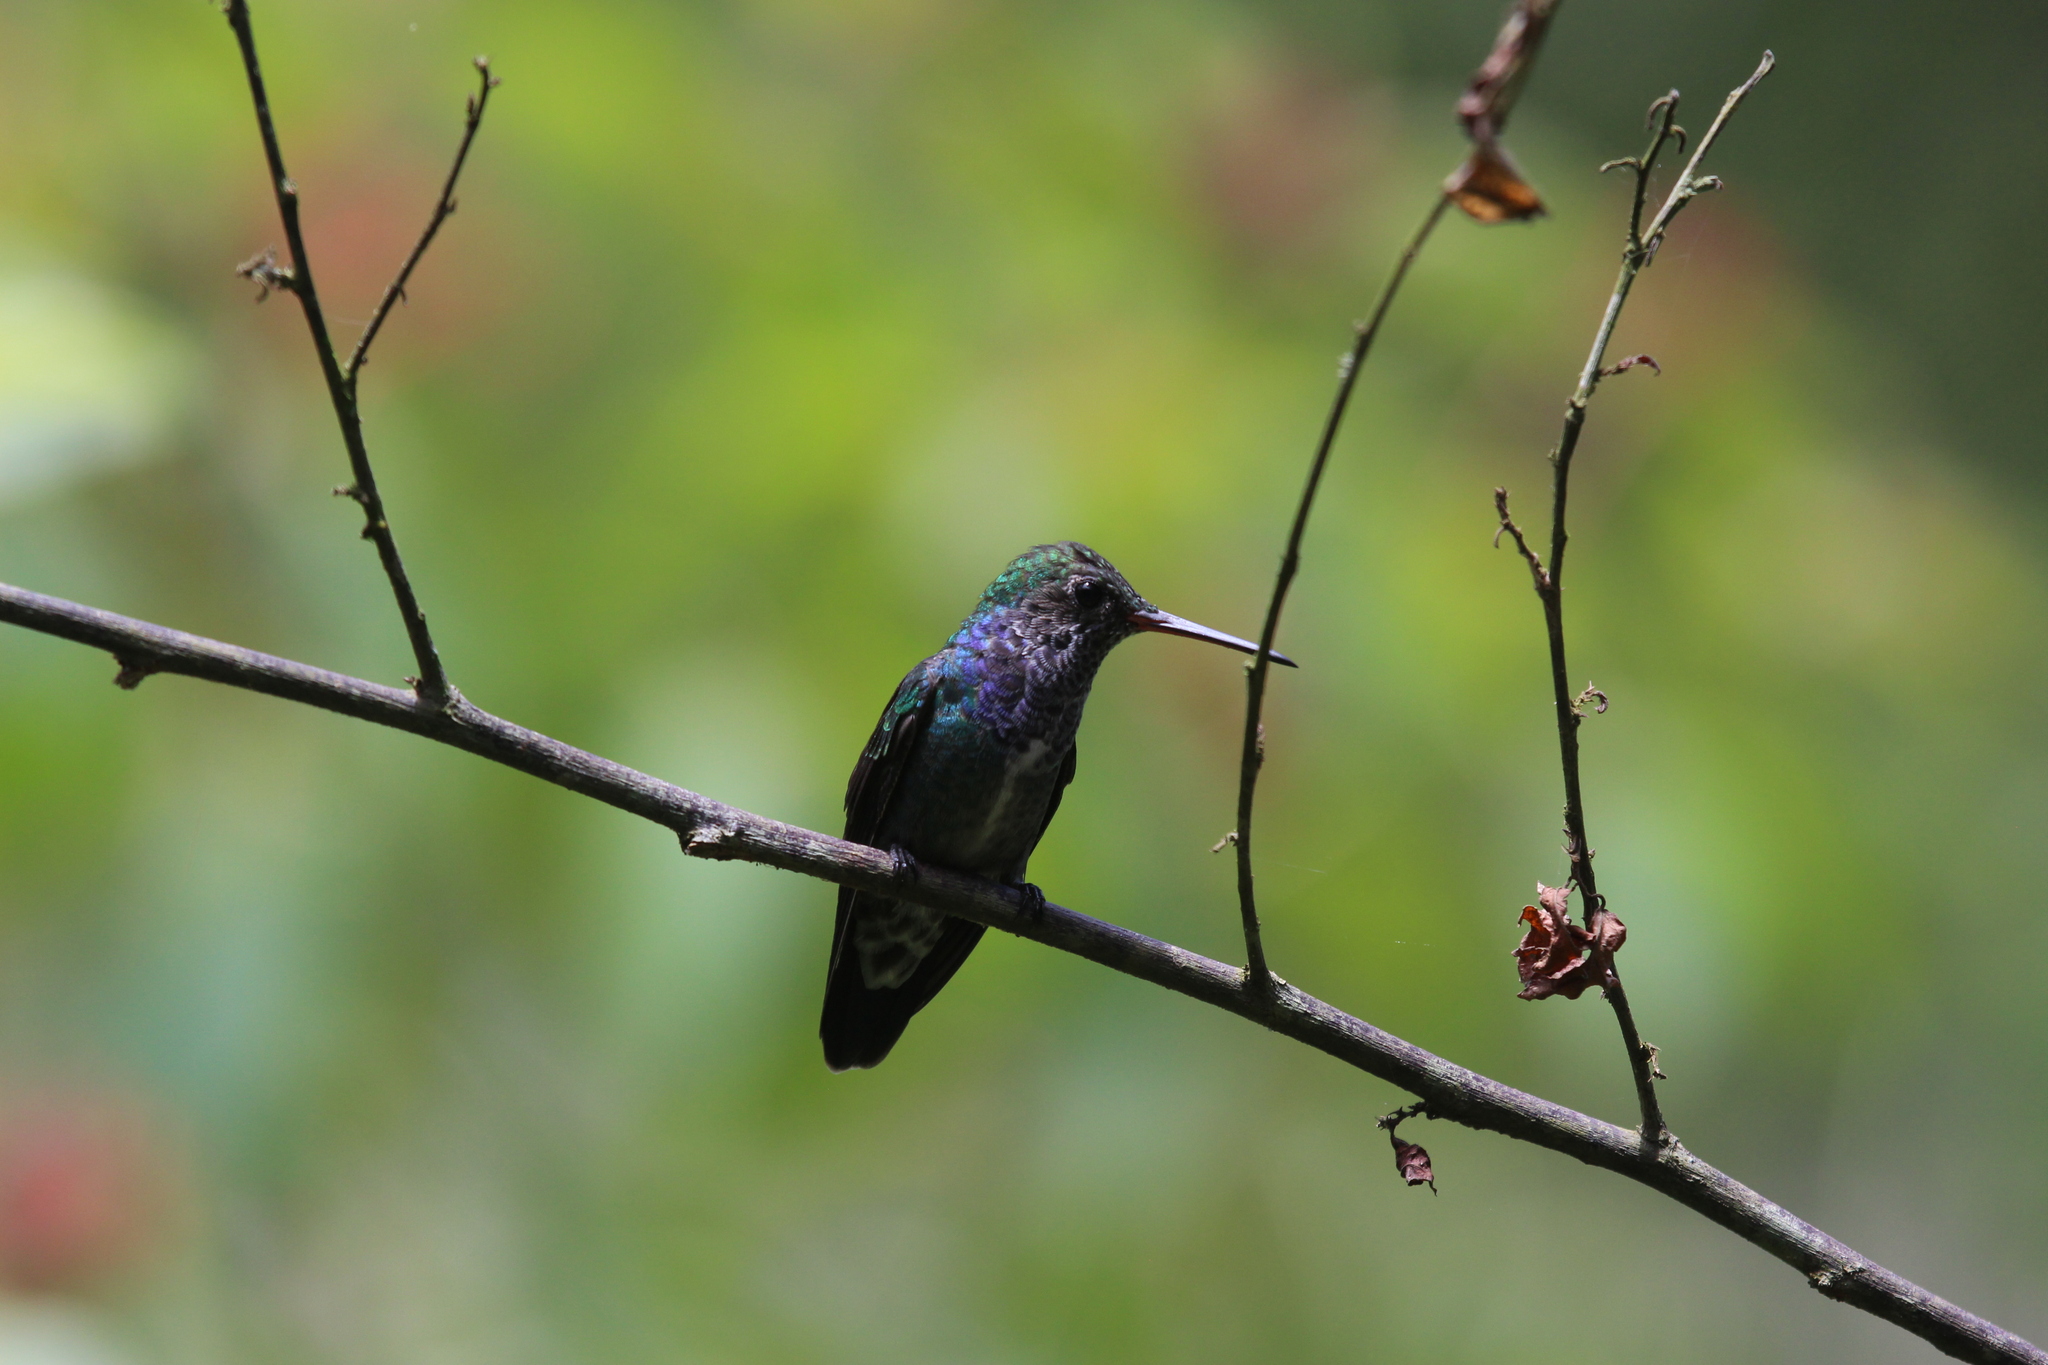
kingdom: Animalia
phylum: Chordata
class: Aves
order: Apodiformes
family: Trochilidae
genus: Chionomesa
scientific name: Chionomesa lactea
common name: Sapphire-spangled emerald
